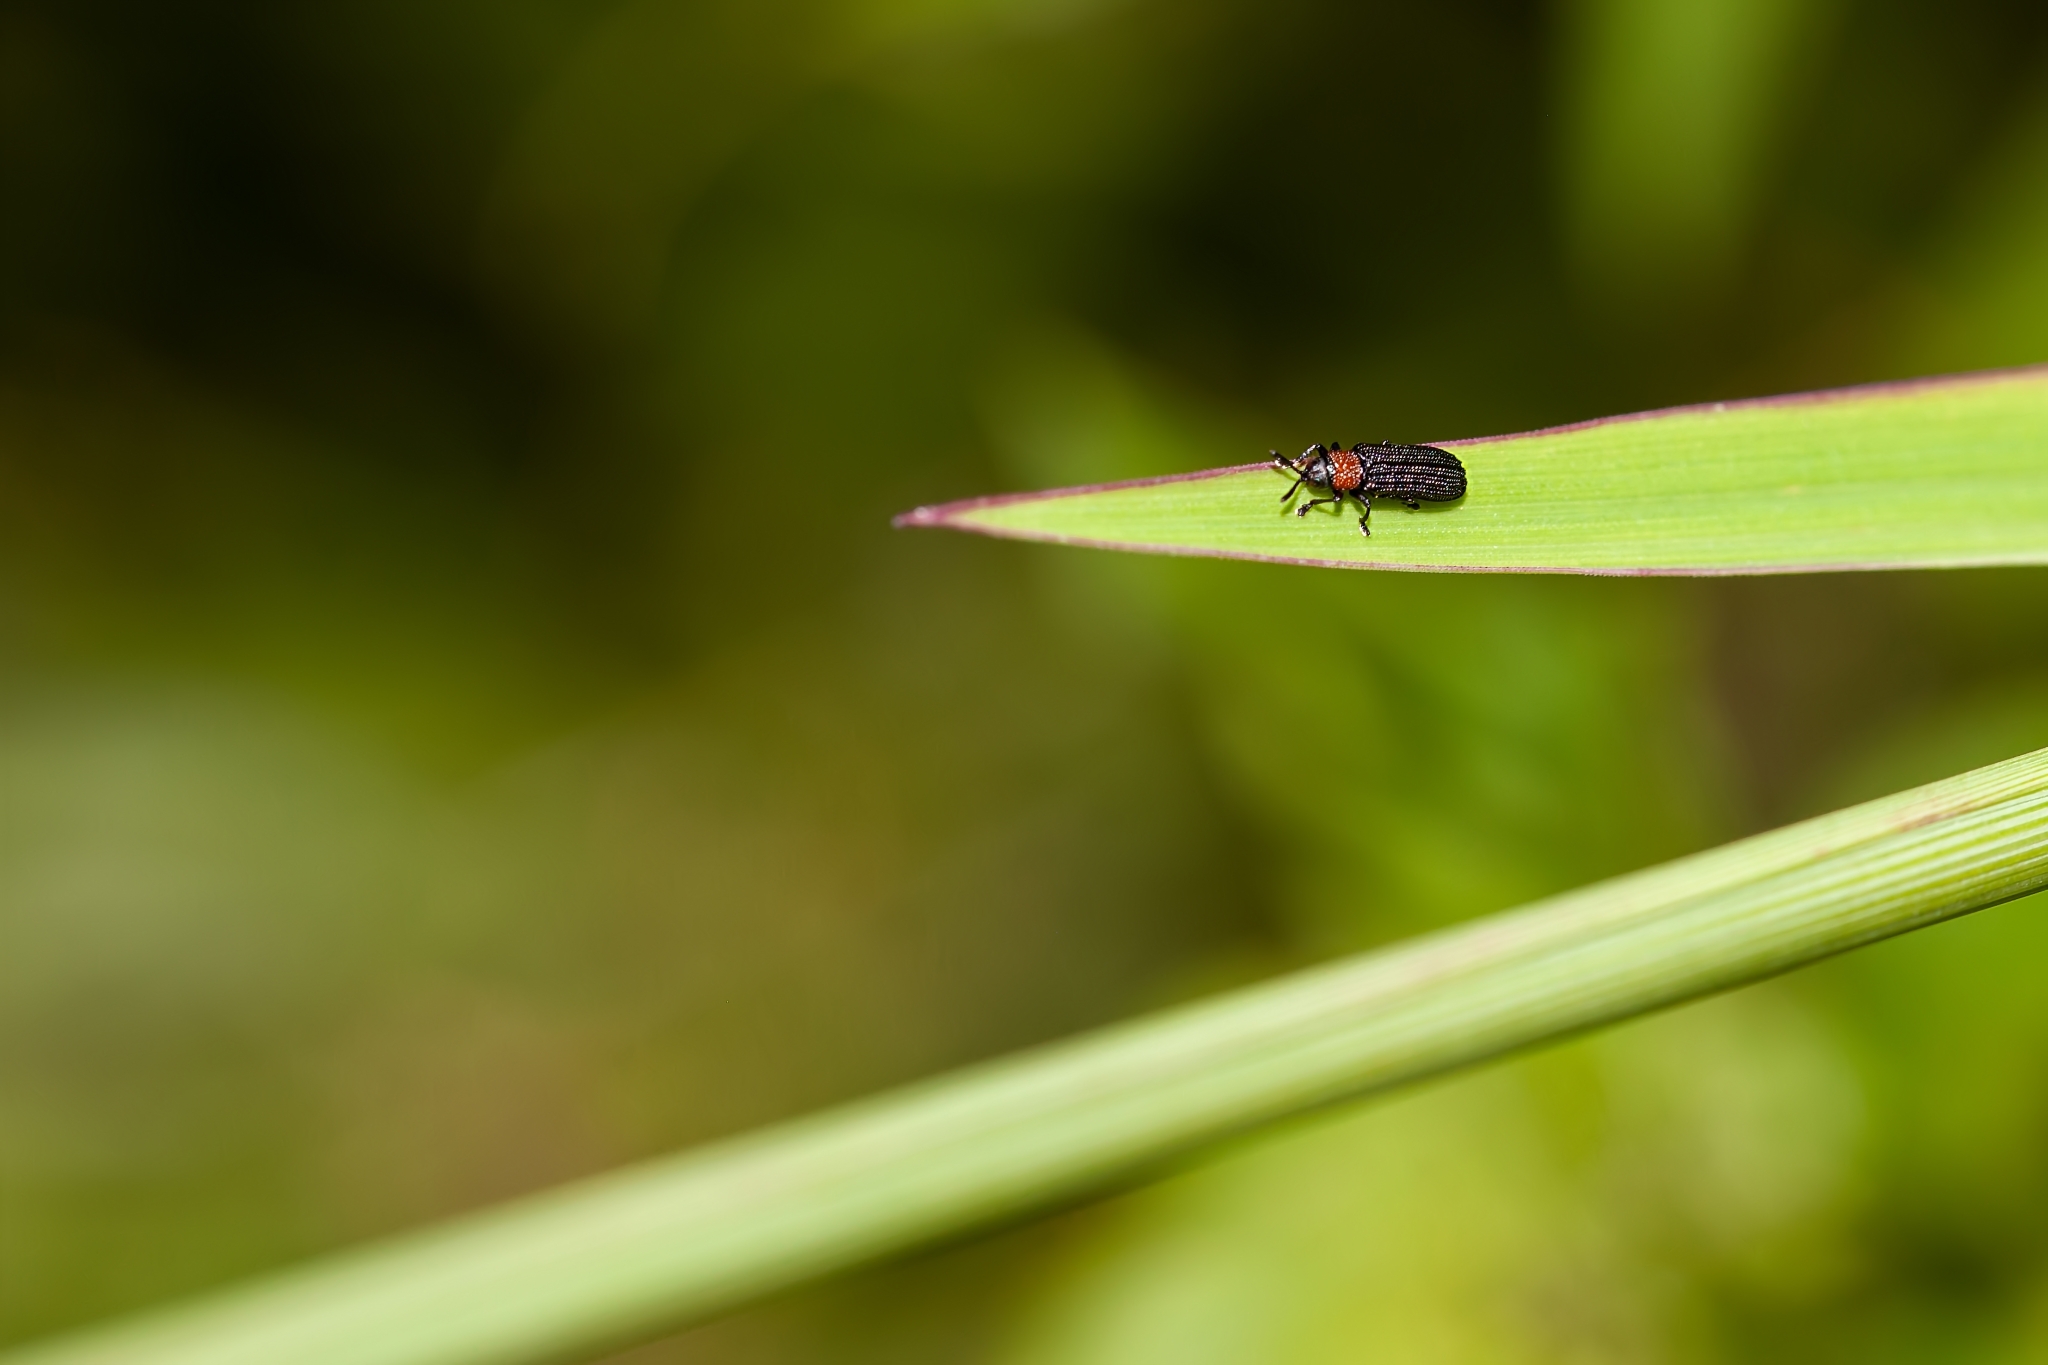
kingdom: Animalia
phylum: Arthropoda
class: Insecta
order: Coleoptera
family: Chrysomelidae
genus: Anisostena
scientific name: Anisostena ariadne
